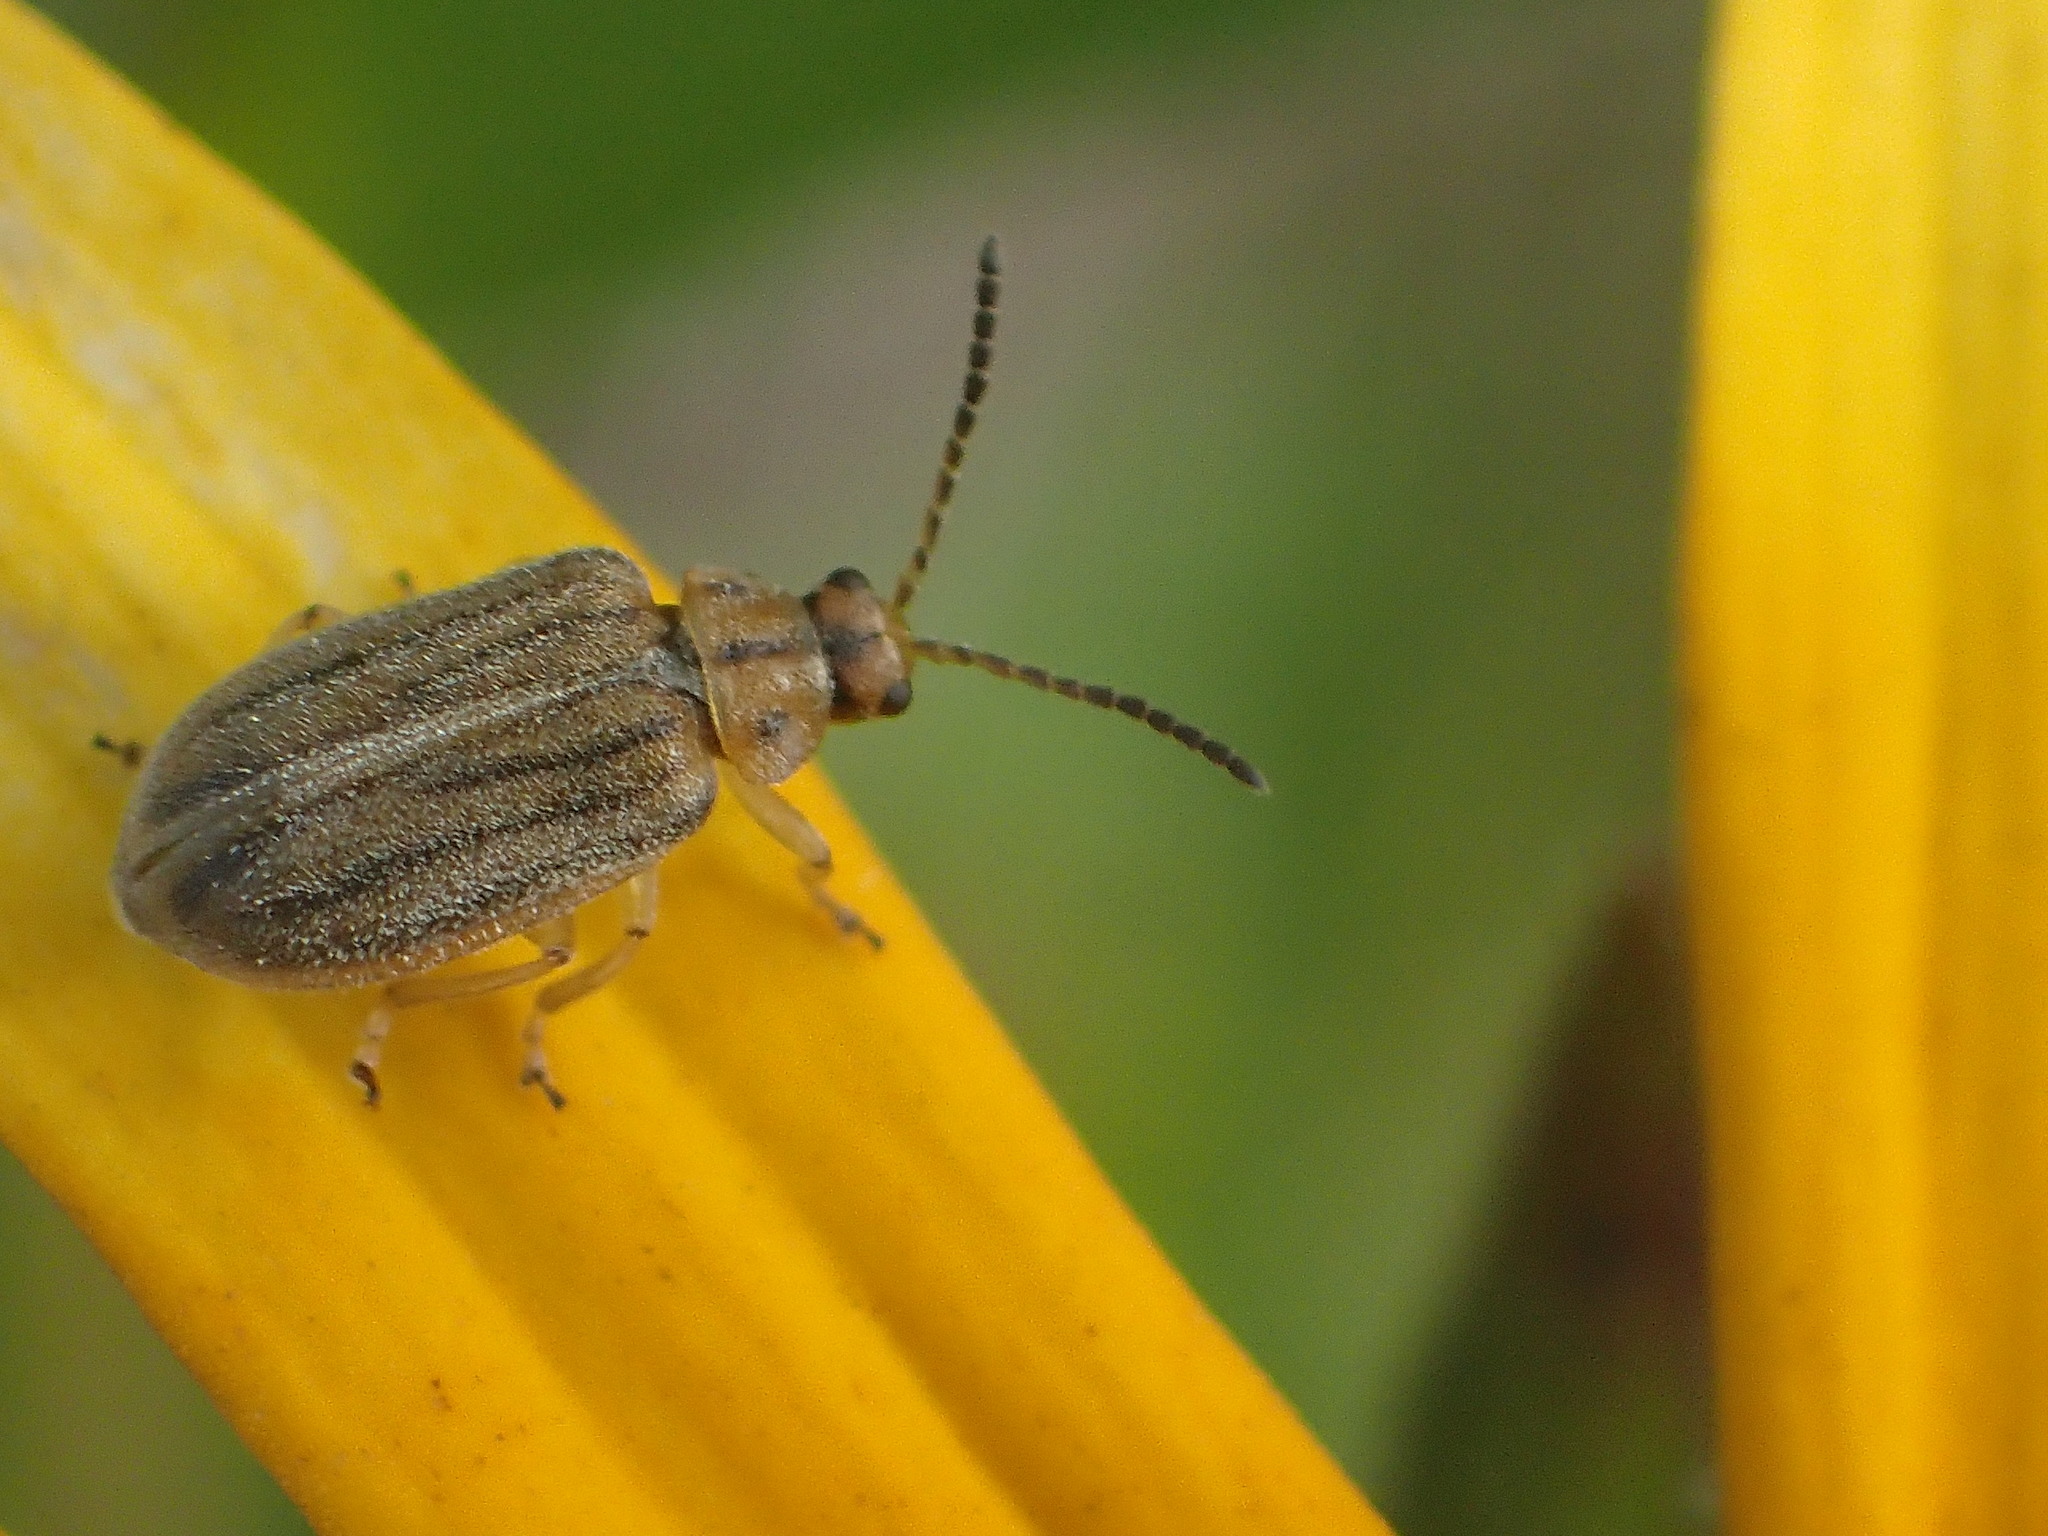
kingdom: Animalia
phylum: Arthropoda
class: Insecta
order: Coleoptera
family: Chrysomelidae
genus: Ophraella
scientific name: Ophraella communa
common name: Ragweed leaf beetle
